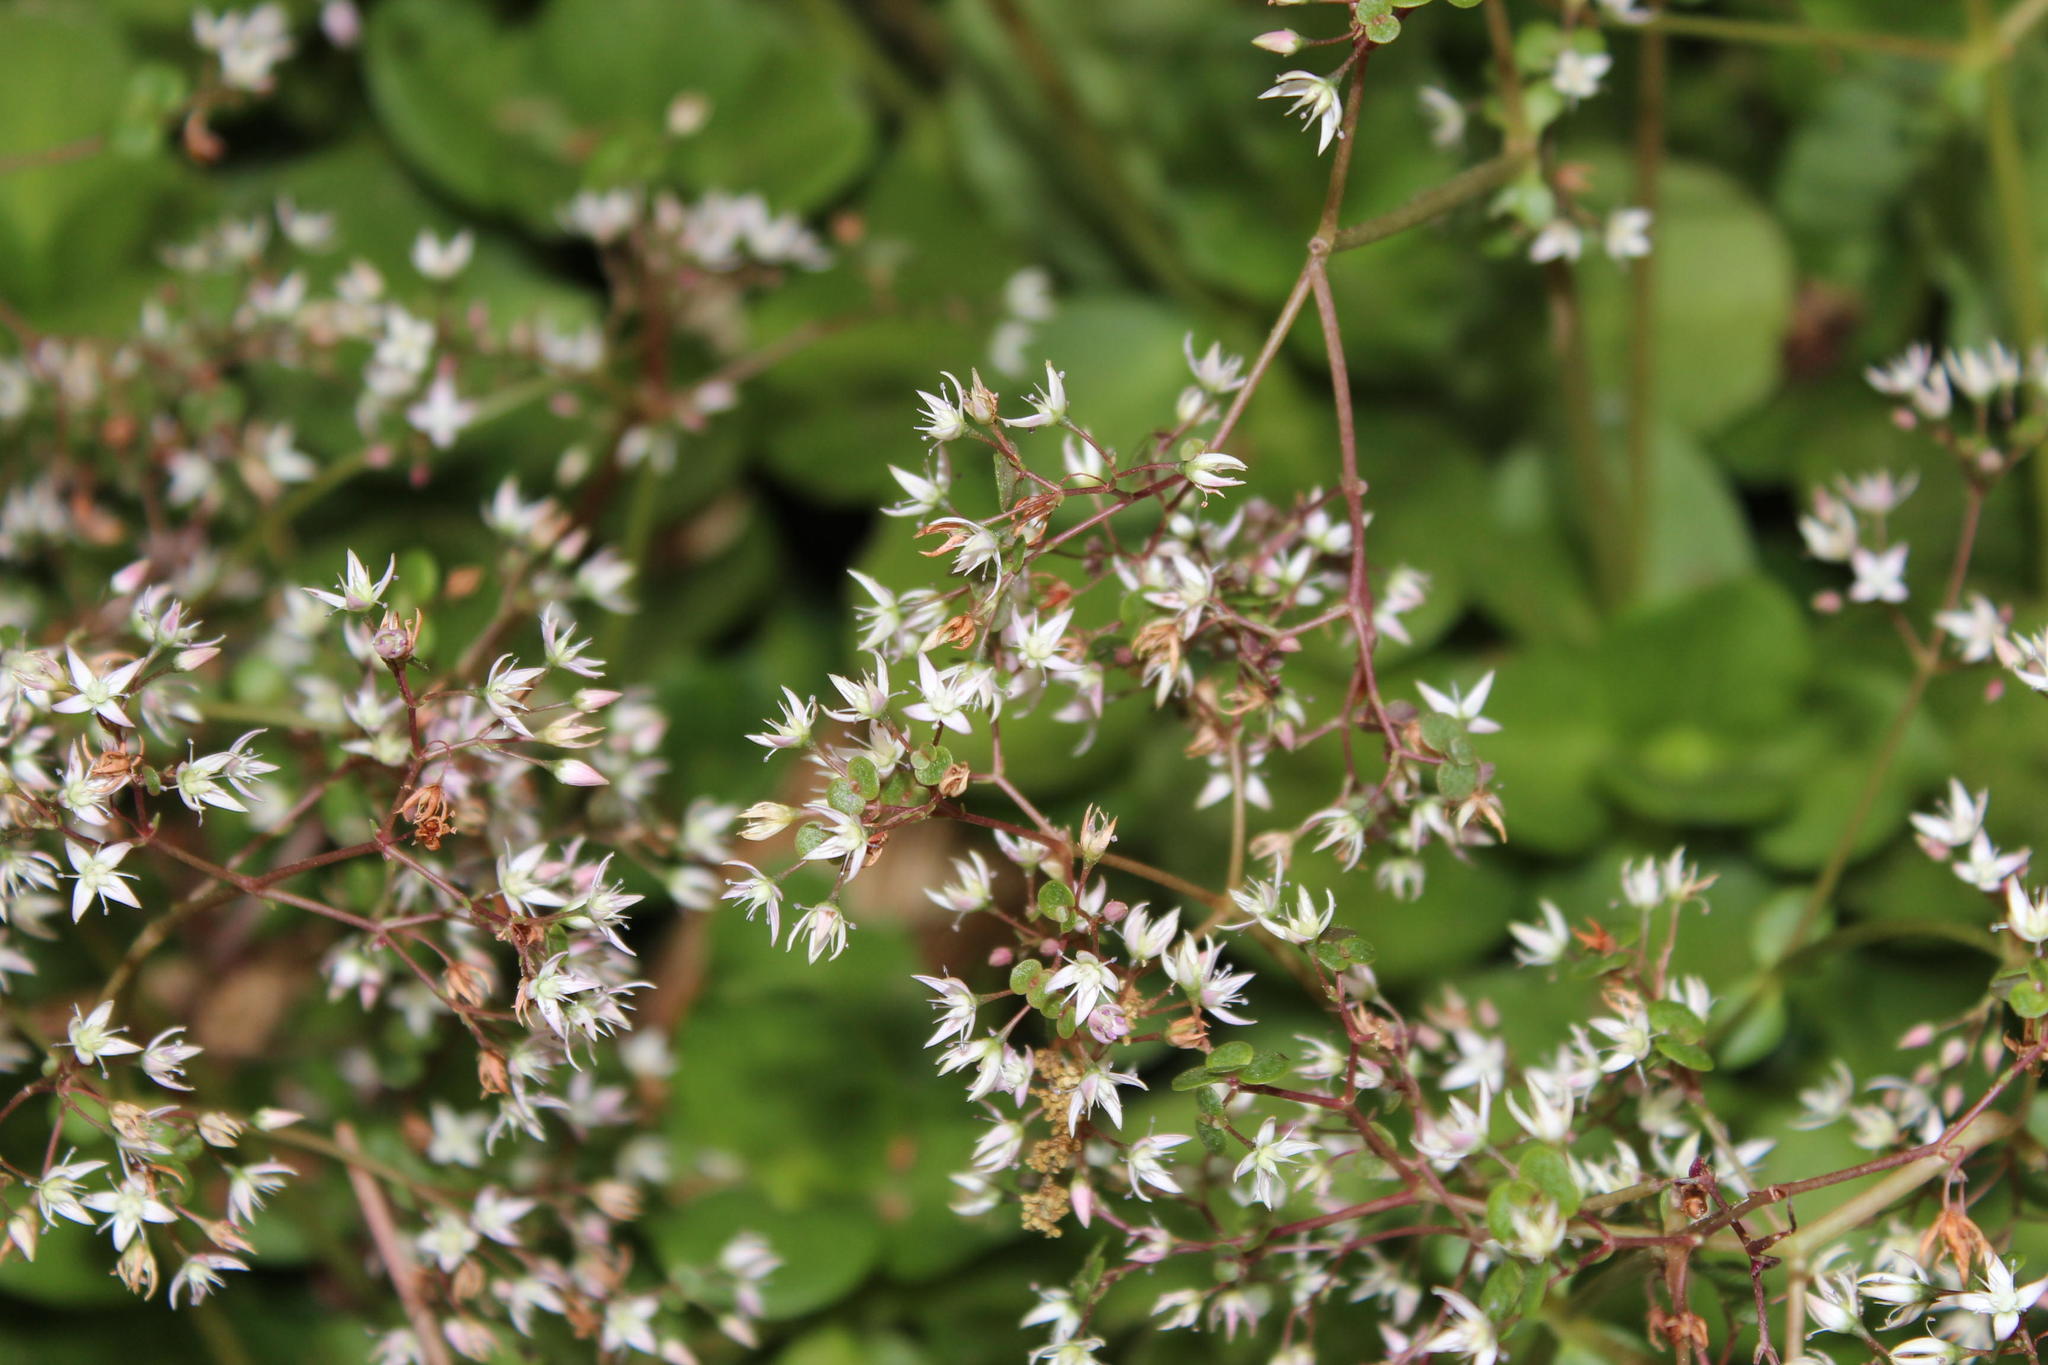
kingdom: Plantae
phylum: Tracheophyta
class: Magnoliopsida
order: Saxifragales
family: Crassulaceae
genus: Crassula
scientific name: Crassula multicava
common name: Cape province pygmyweed
